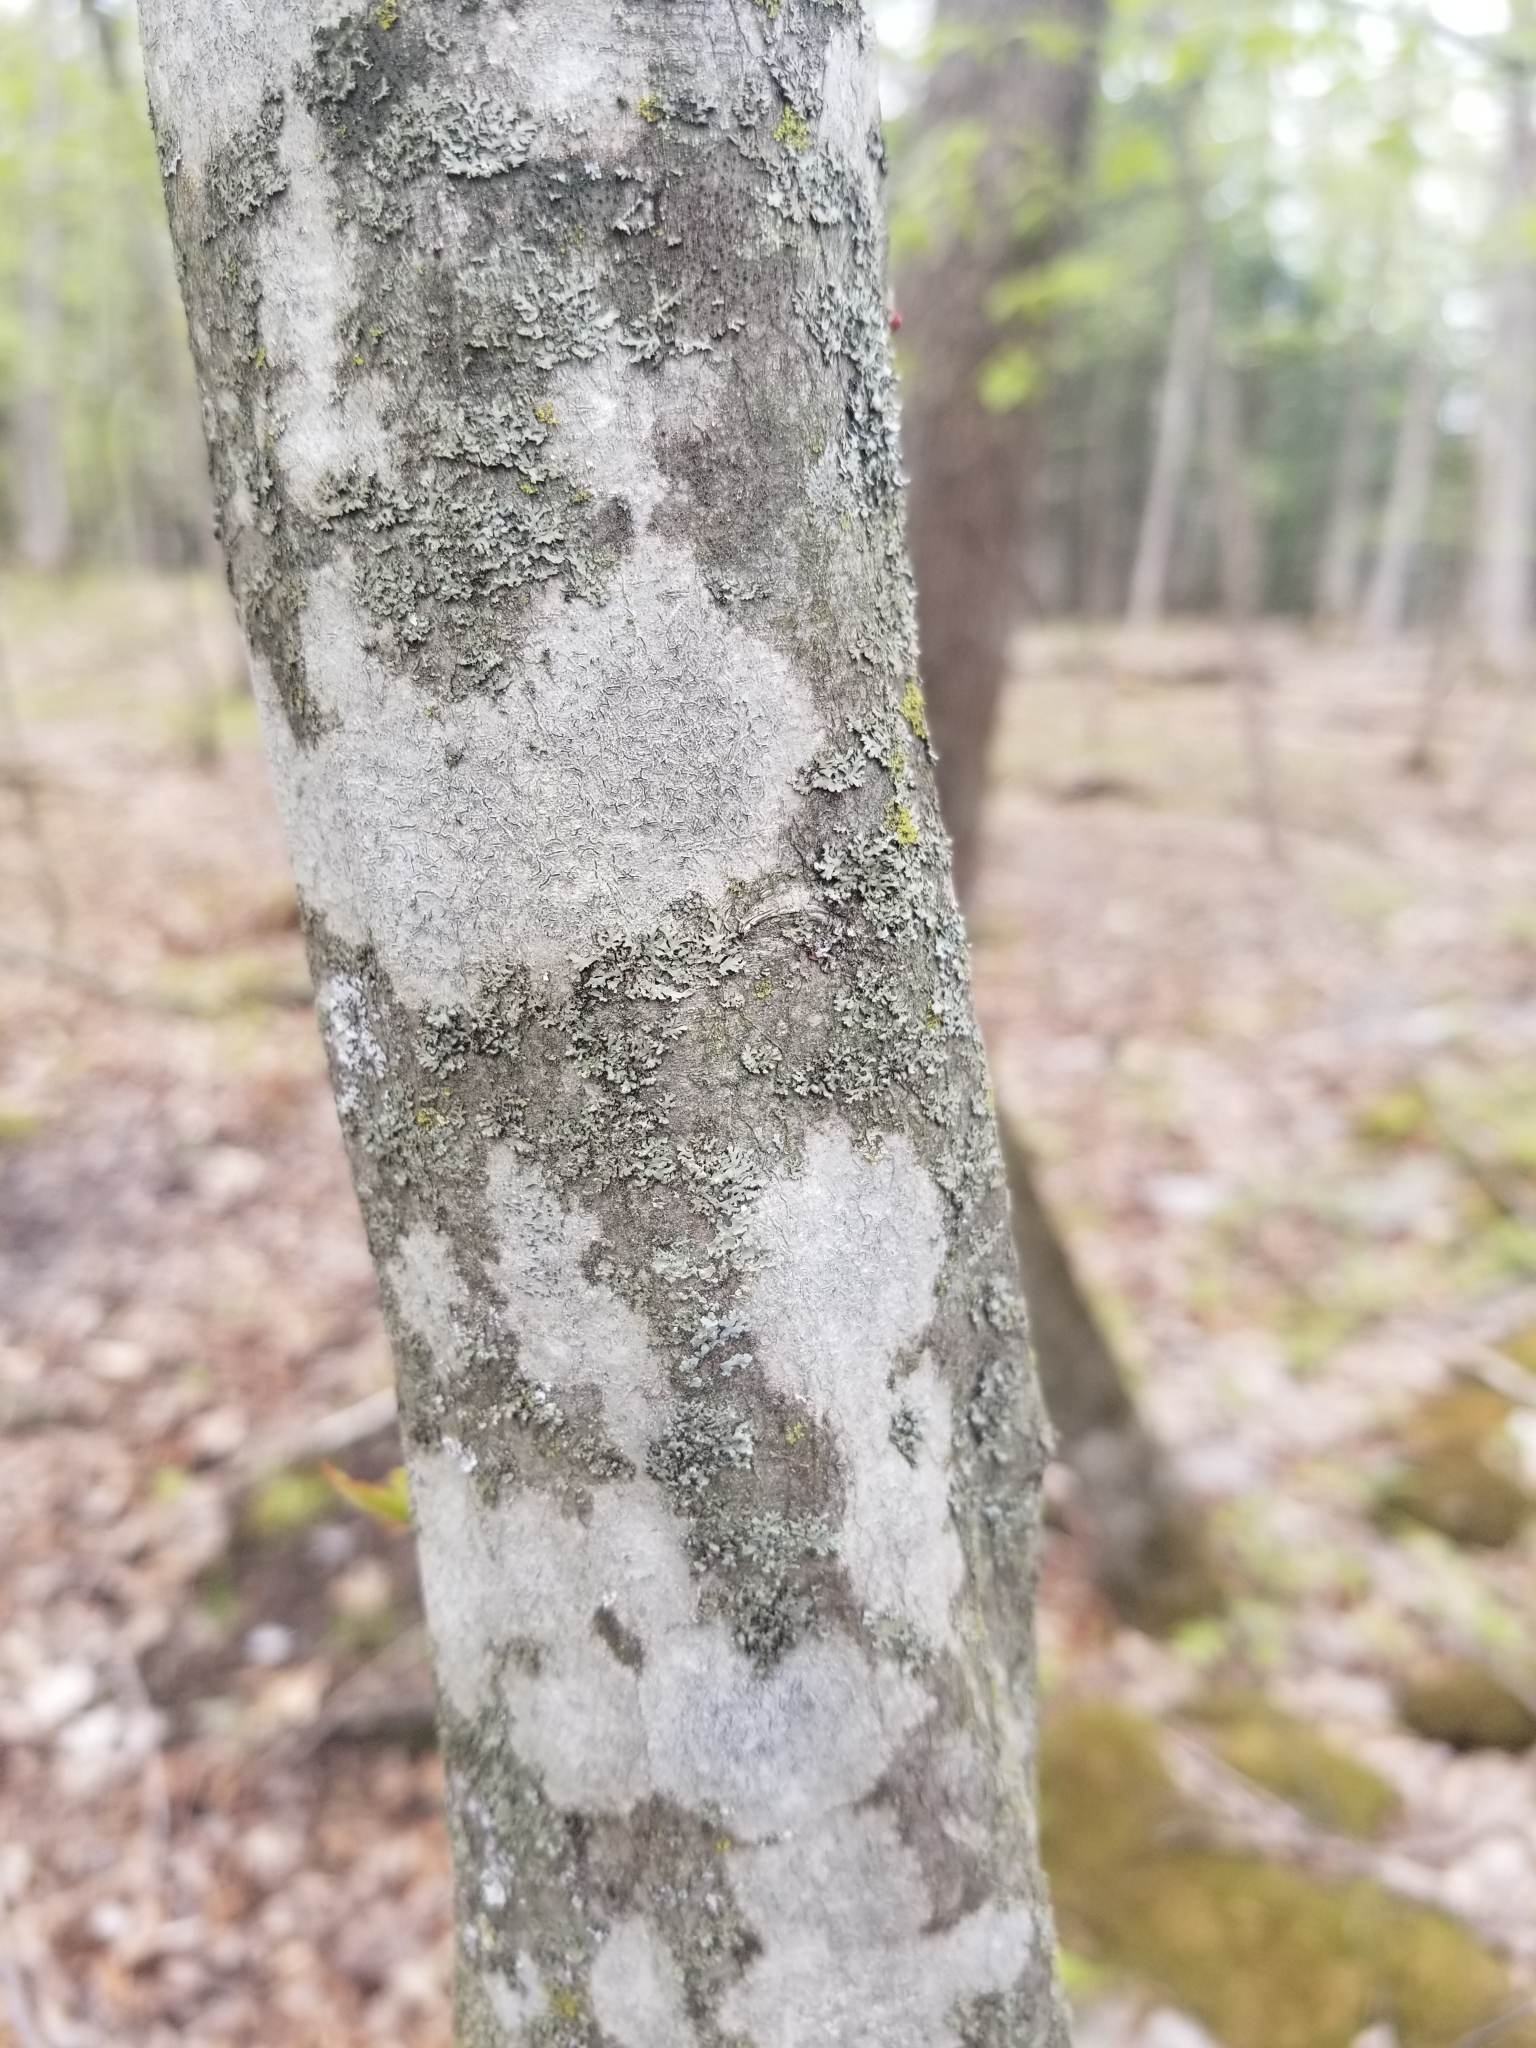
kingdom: Plantae
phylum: Tracheophyta
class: Magnoliopsida
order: Fagales
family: Betulaceae
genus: Carpinus
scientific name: Carpinus caroliniana
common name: American hornbeam
